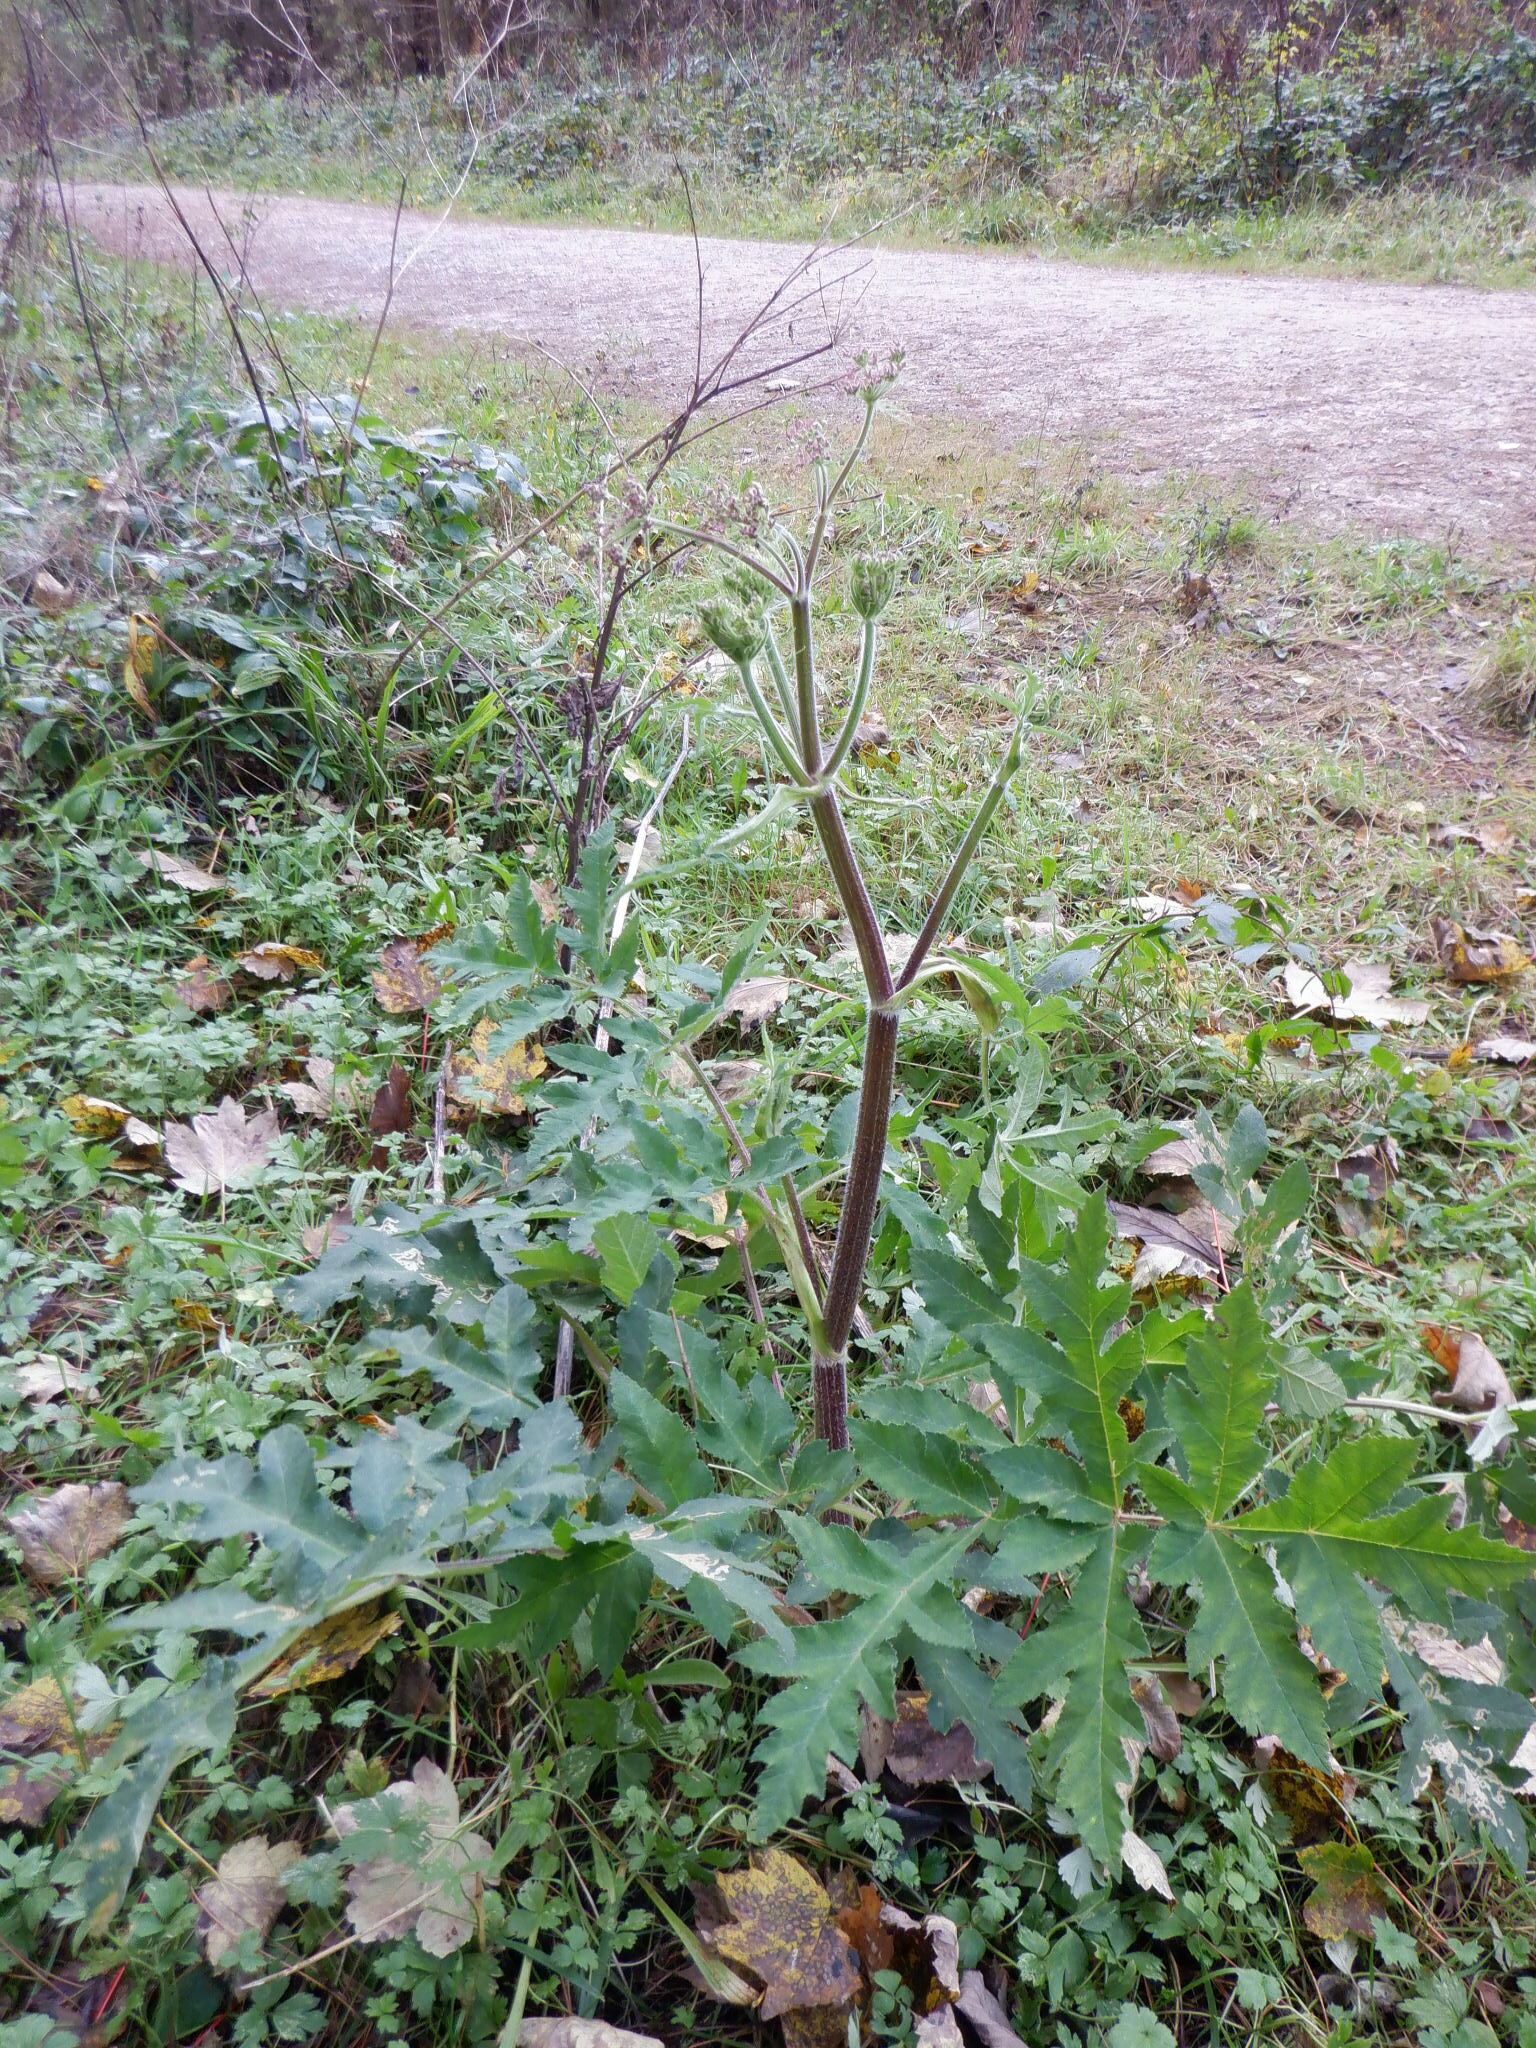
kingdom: Plantae
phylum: Tracheophyta
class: Magnoliopsida
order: Apiales
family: Apiaceae
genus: Heracleum
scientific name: Heracleum sphondylium
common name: Hogweed
